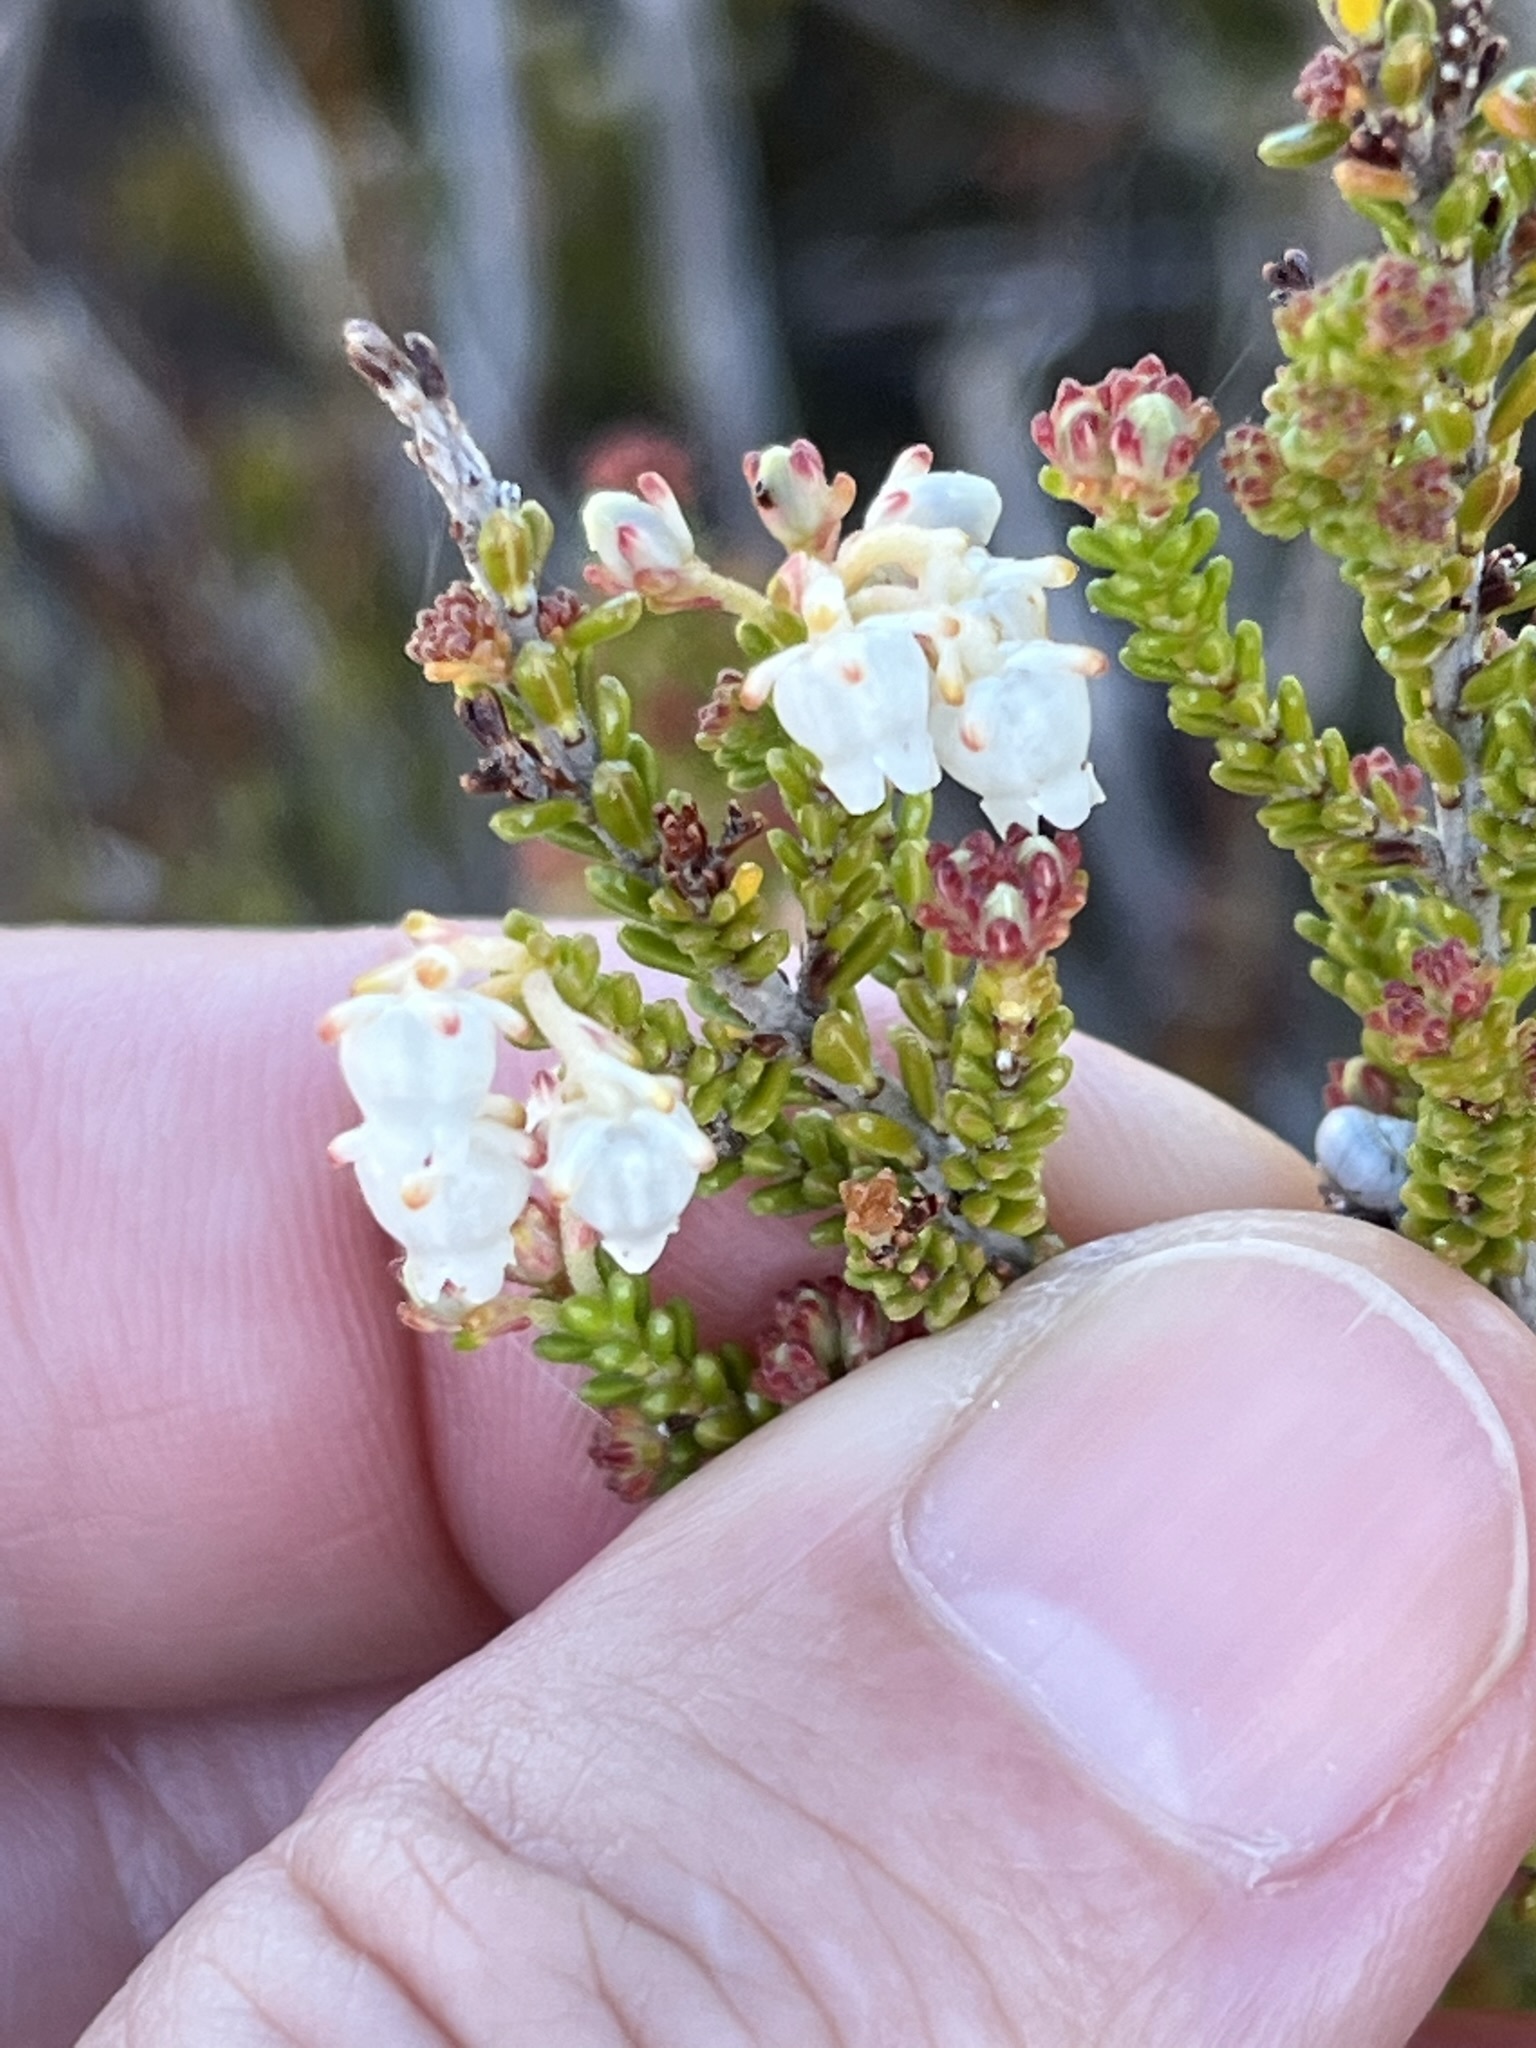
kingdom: Plantae
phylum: Tracheophyta
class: Magnoliopsida
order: Ericales
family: Ericaceae
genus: Erica
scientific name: Erica spectabilis
